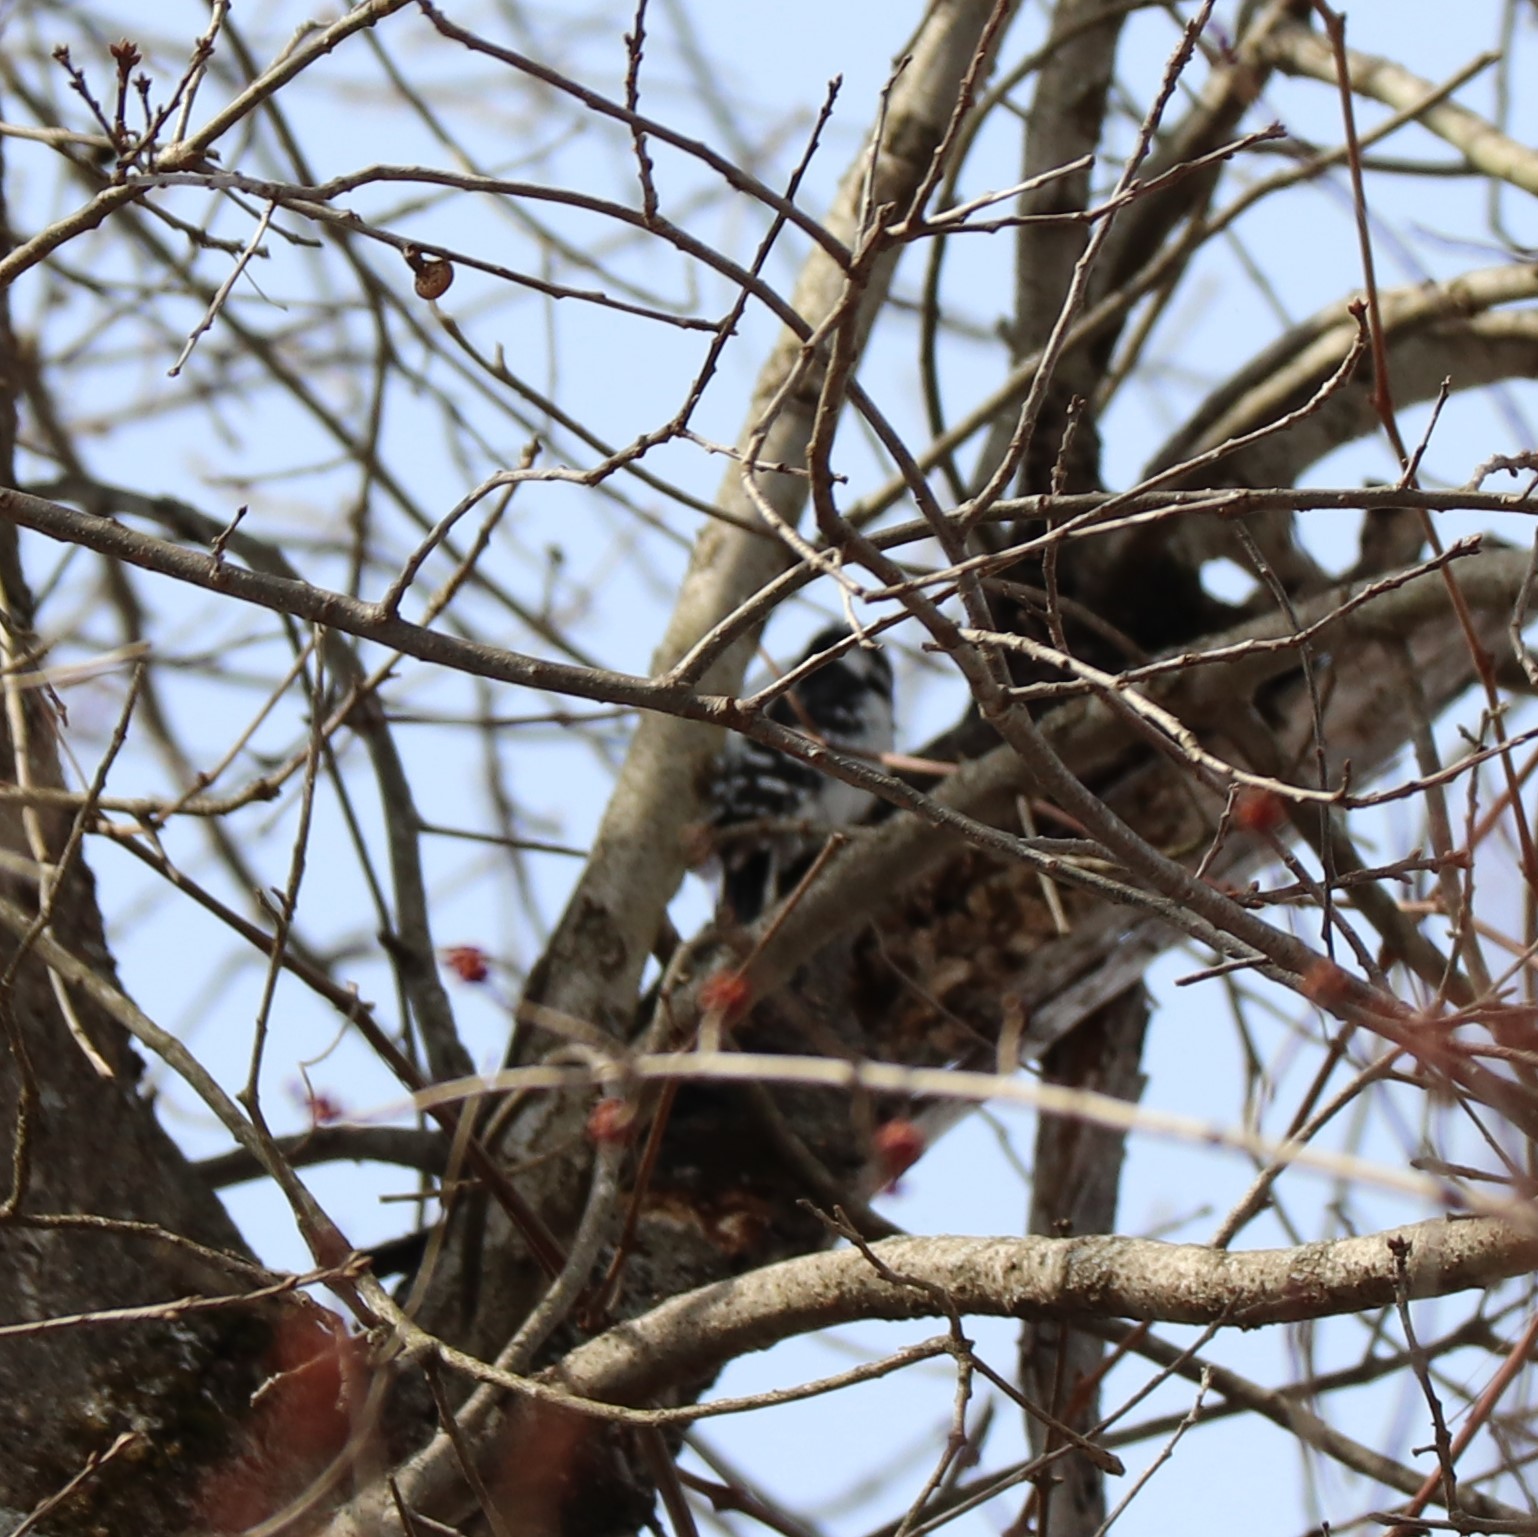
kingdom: Animalia
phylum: Chordata
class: Aves
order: Piciformes
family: Picidae
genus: Dryobates
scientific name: Dryobates pubescens
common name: Downy woodpecker
